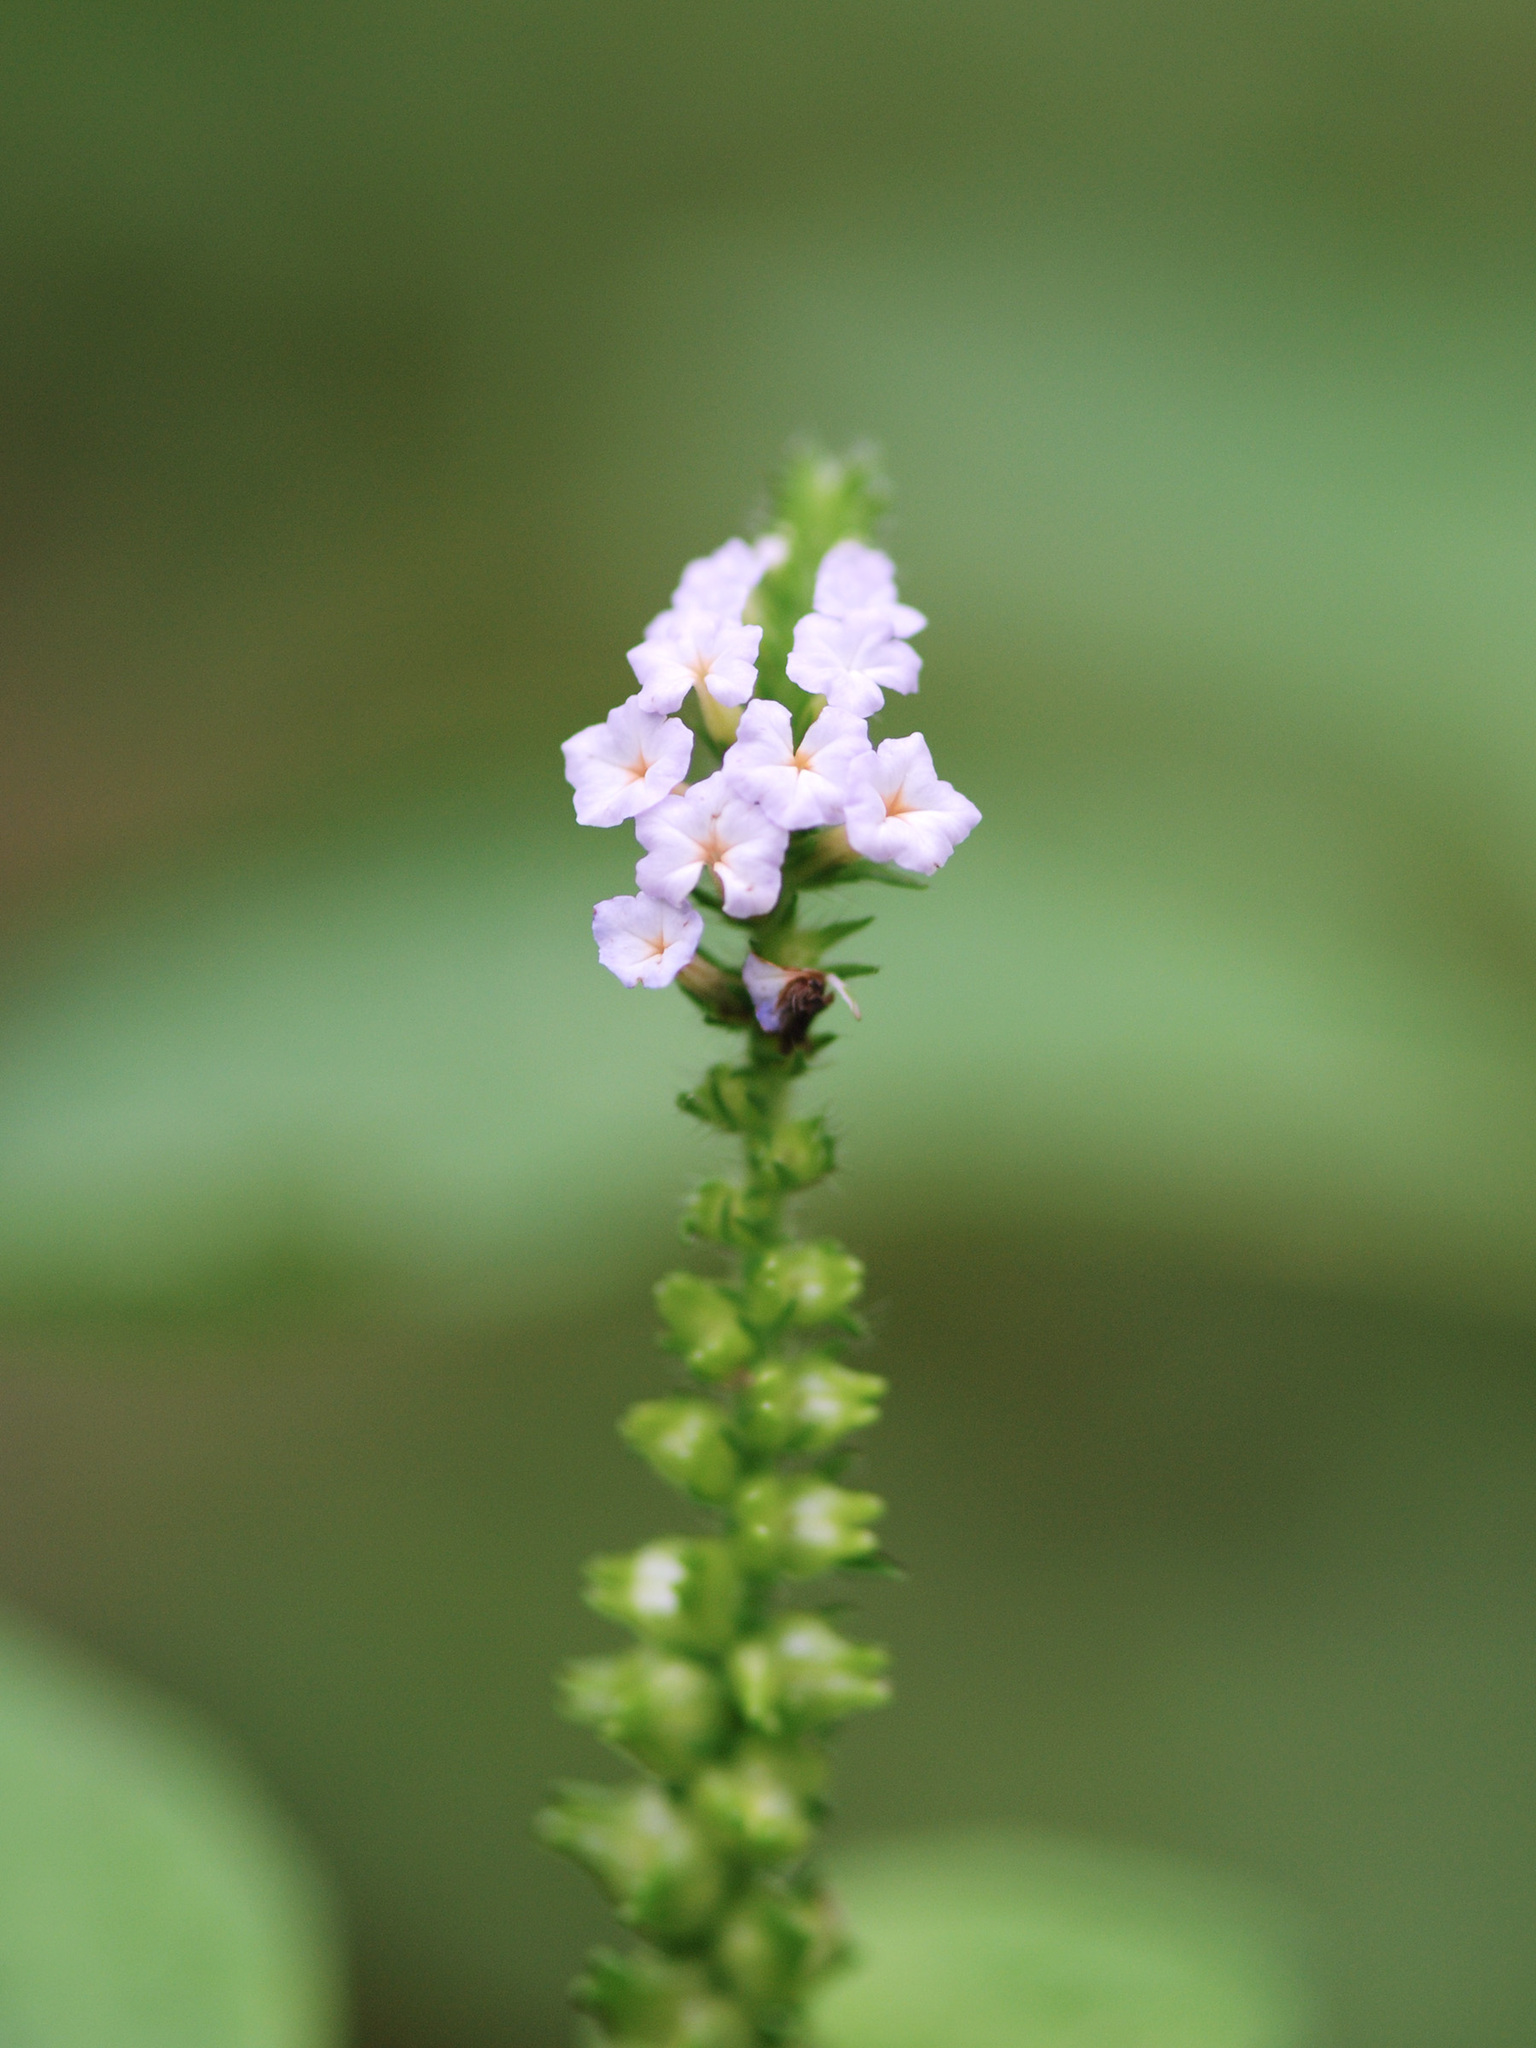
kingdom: Plantae
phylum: Tracheophyta
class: Magnoliopsida
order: Boraginales
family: Heliotropiaceae
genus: Heliotropium
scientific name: Heliotropium indicum
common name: Indian heliotrope
